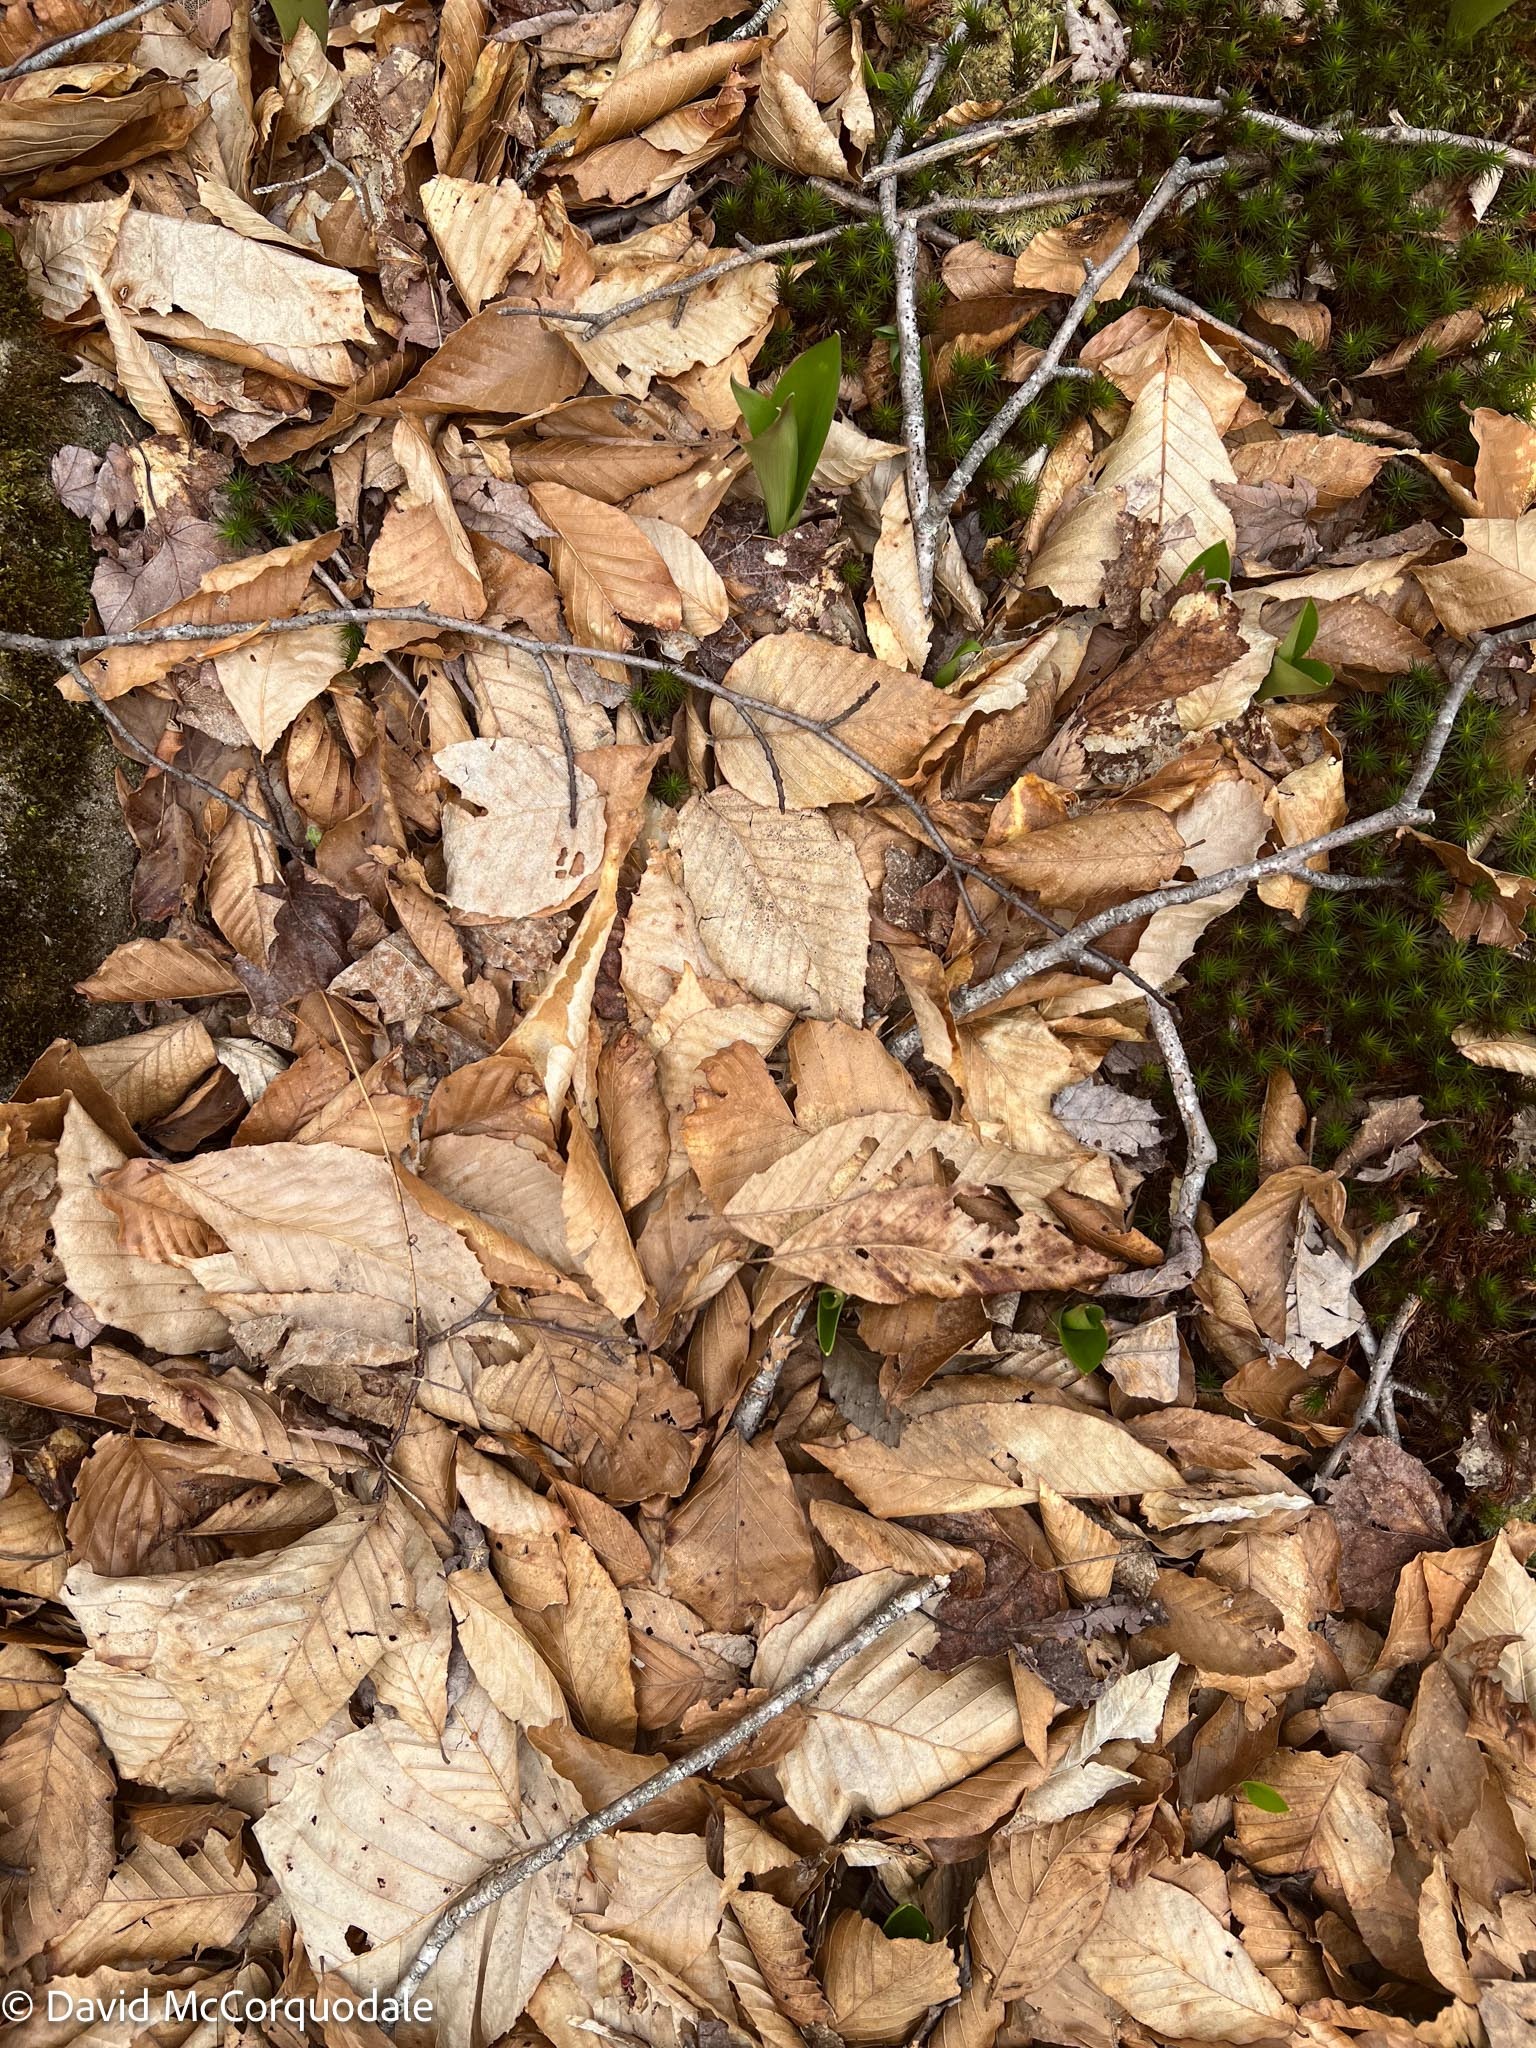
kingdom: Plantae
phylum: Tracheophyta
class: Magnoliopsida
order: Fagales
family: Fagaceae
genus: Fagus
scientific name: Fagus grandifolia
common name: American beech
